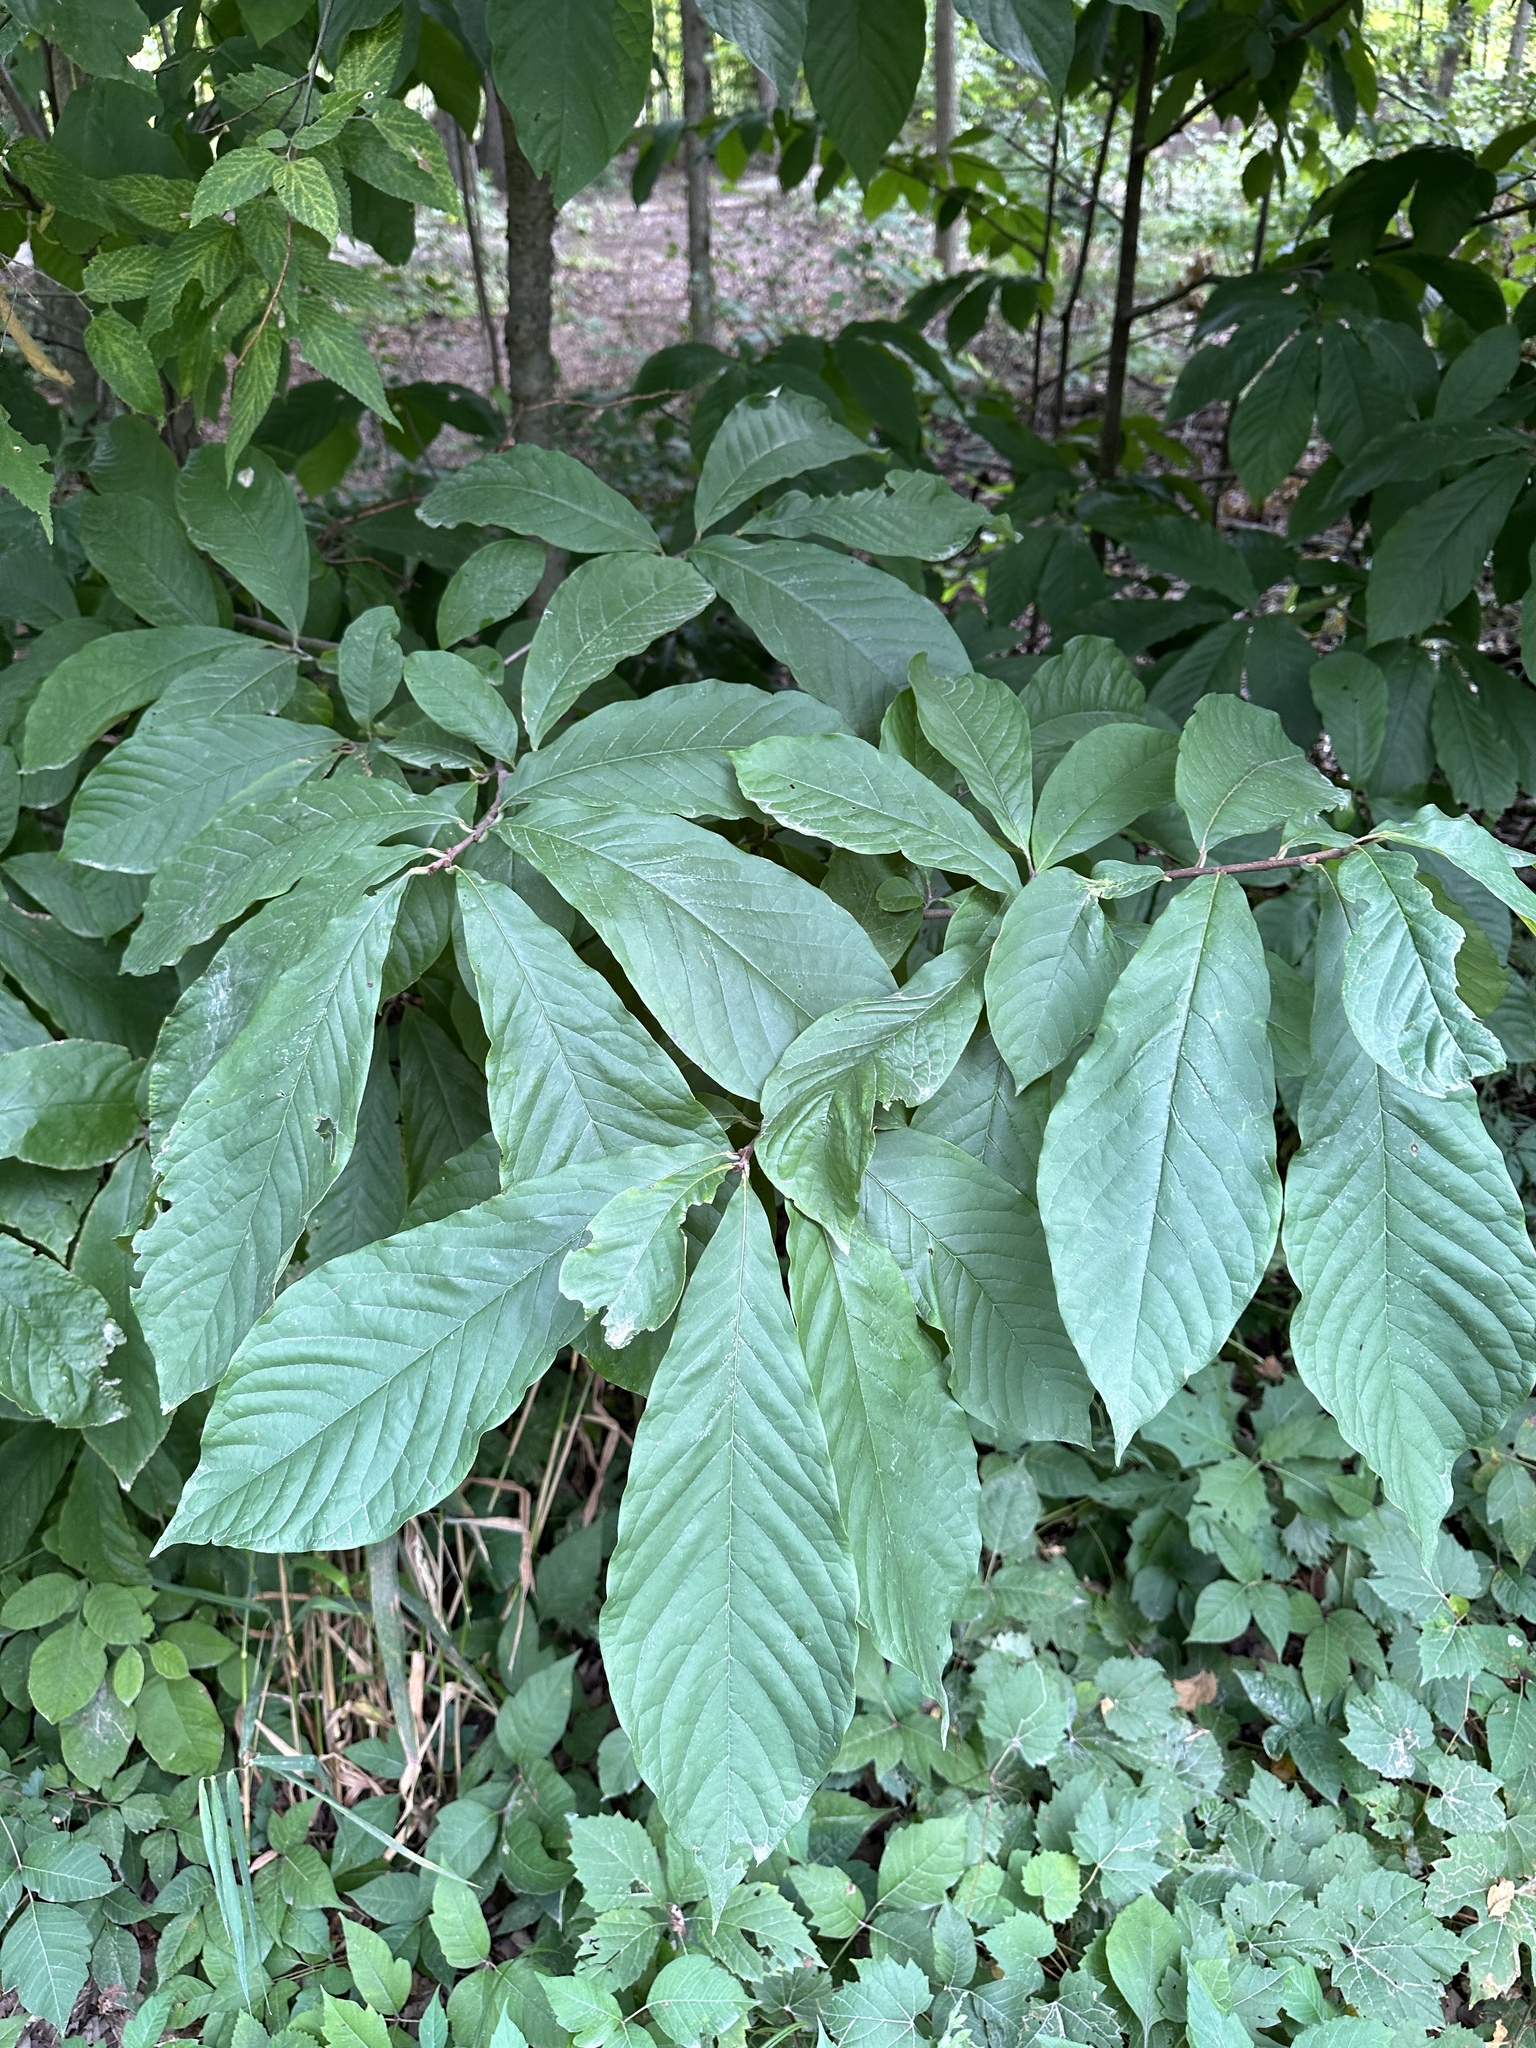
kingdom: Plantae
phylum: Tracheophyta
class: Magnoliopsida
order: Magnoliales
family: Annonaceae
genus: Asimina
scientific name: Asimina triloba
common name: Dog-banana
